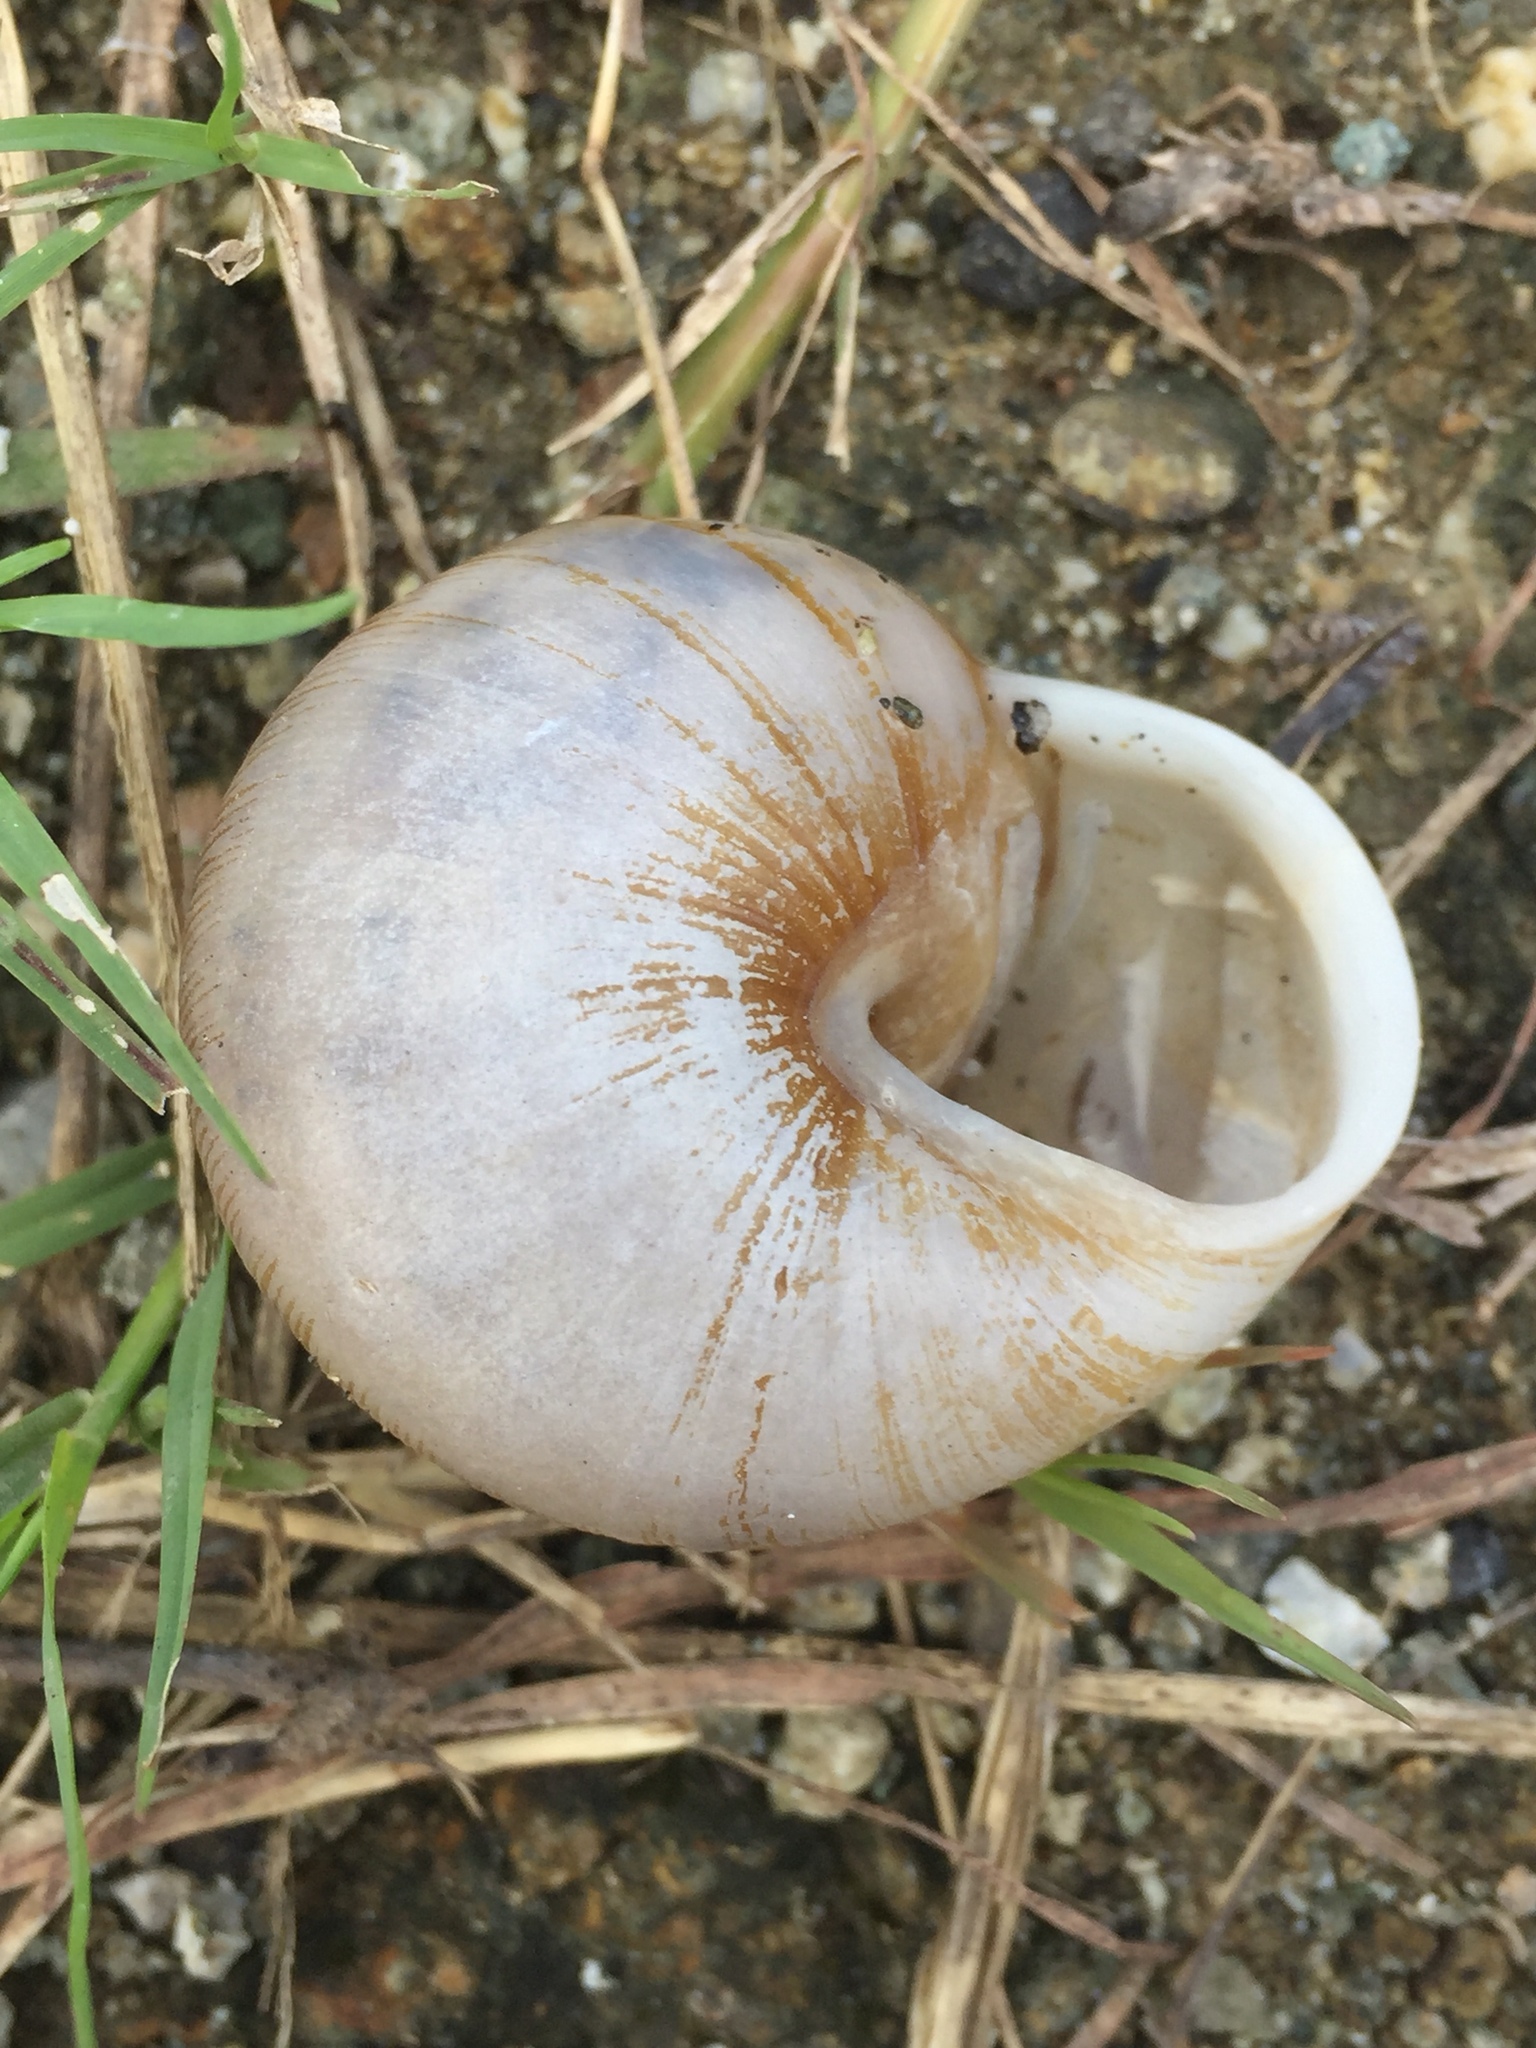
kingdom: Animalia
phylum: Mollusca
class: Gastropoda
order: Stylommatophora
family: Zachrysiidae
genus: Zachrysia
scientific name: Zachrysia provisoria
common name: Garden zachrysia
